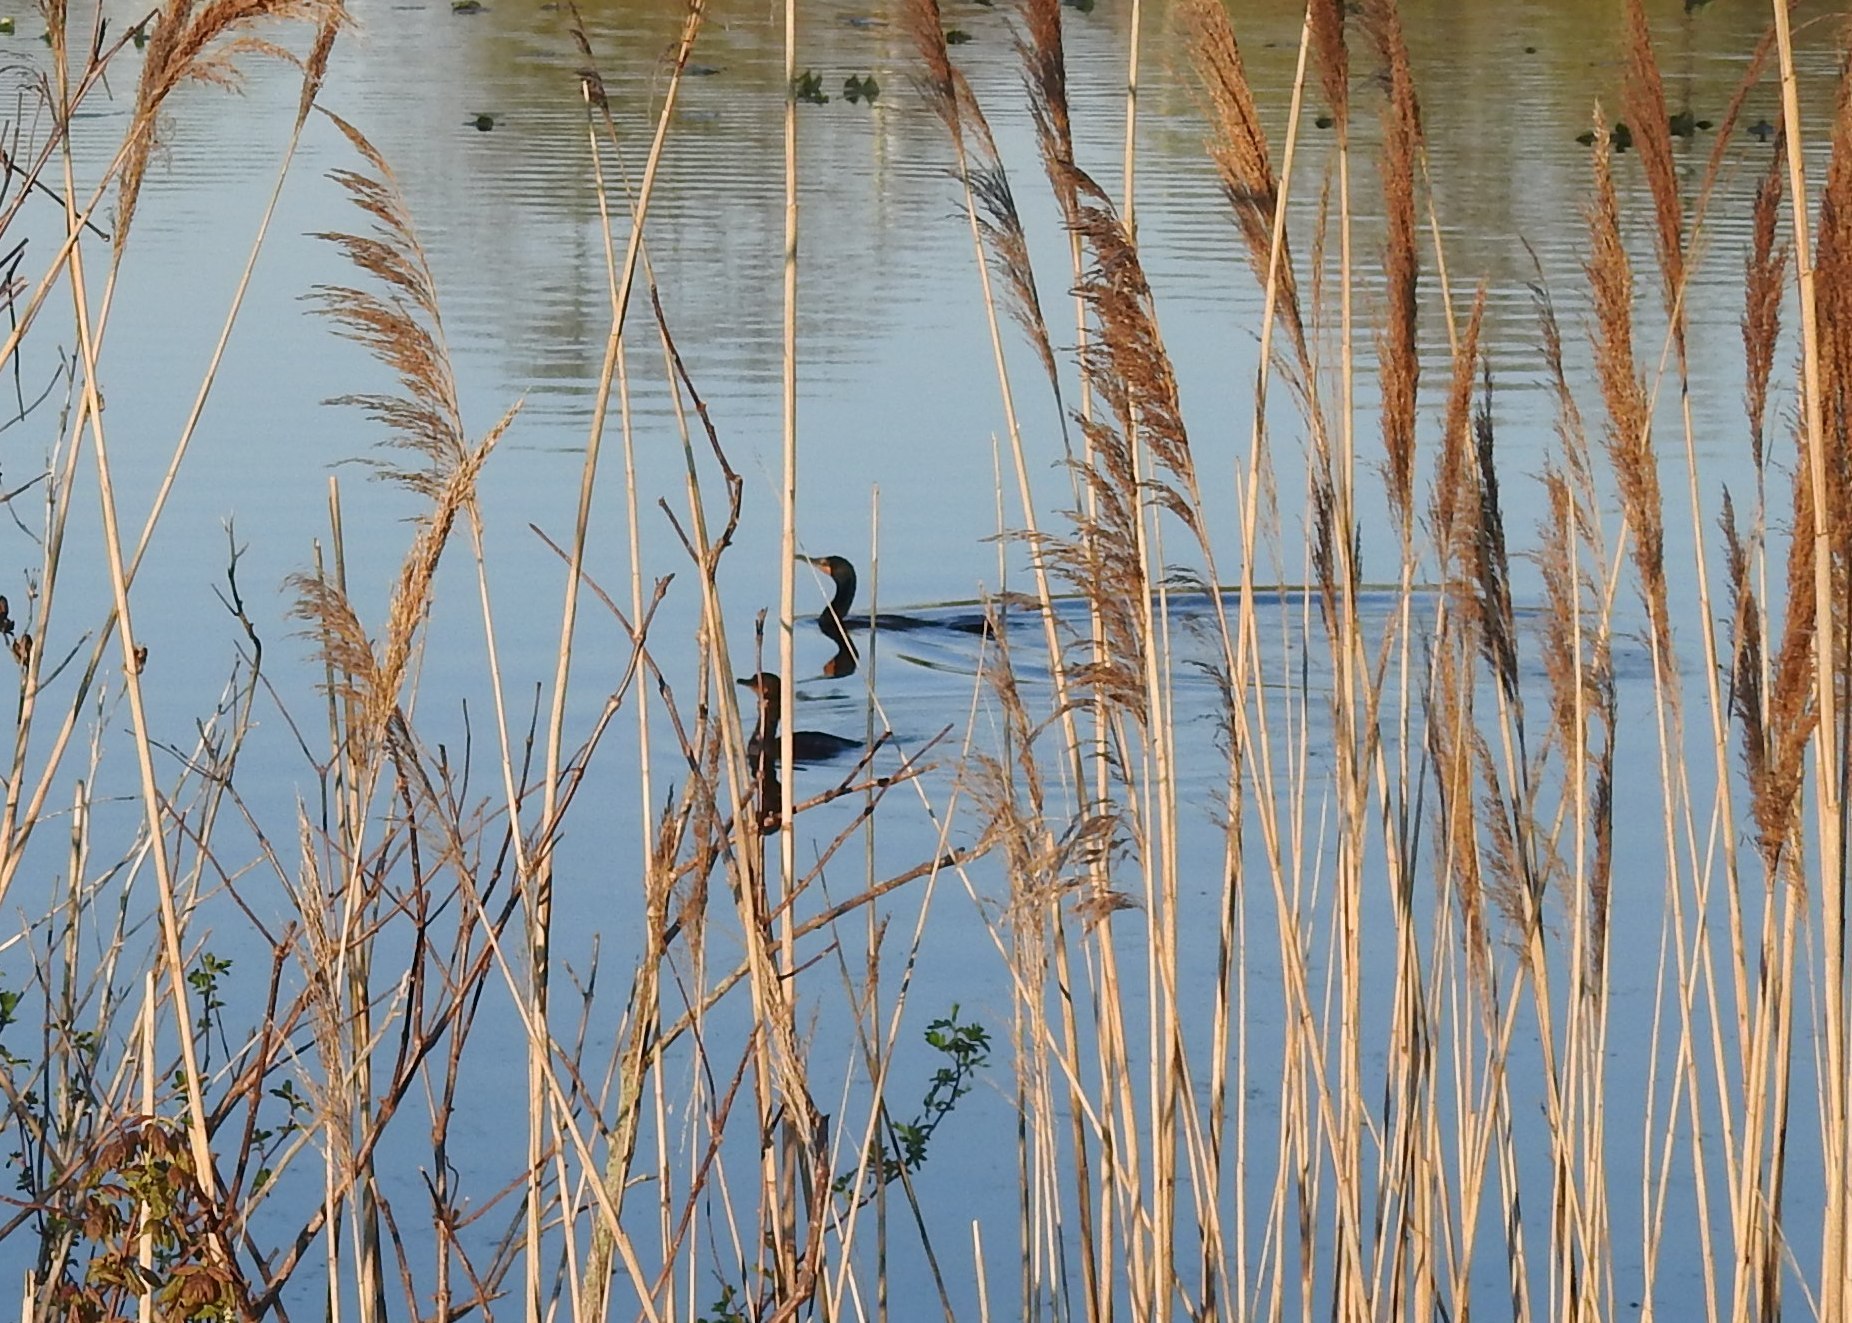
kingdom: Animalia
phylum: Chordata
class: Aves
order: Suliformes
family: Phalacrocoracidae
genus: Phalacrocorax
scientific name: Phalacrocorax auritus
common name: Double-crested cormorant
